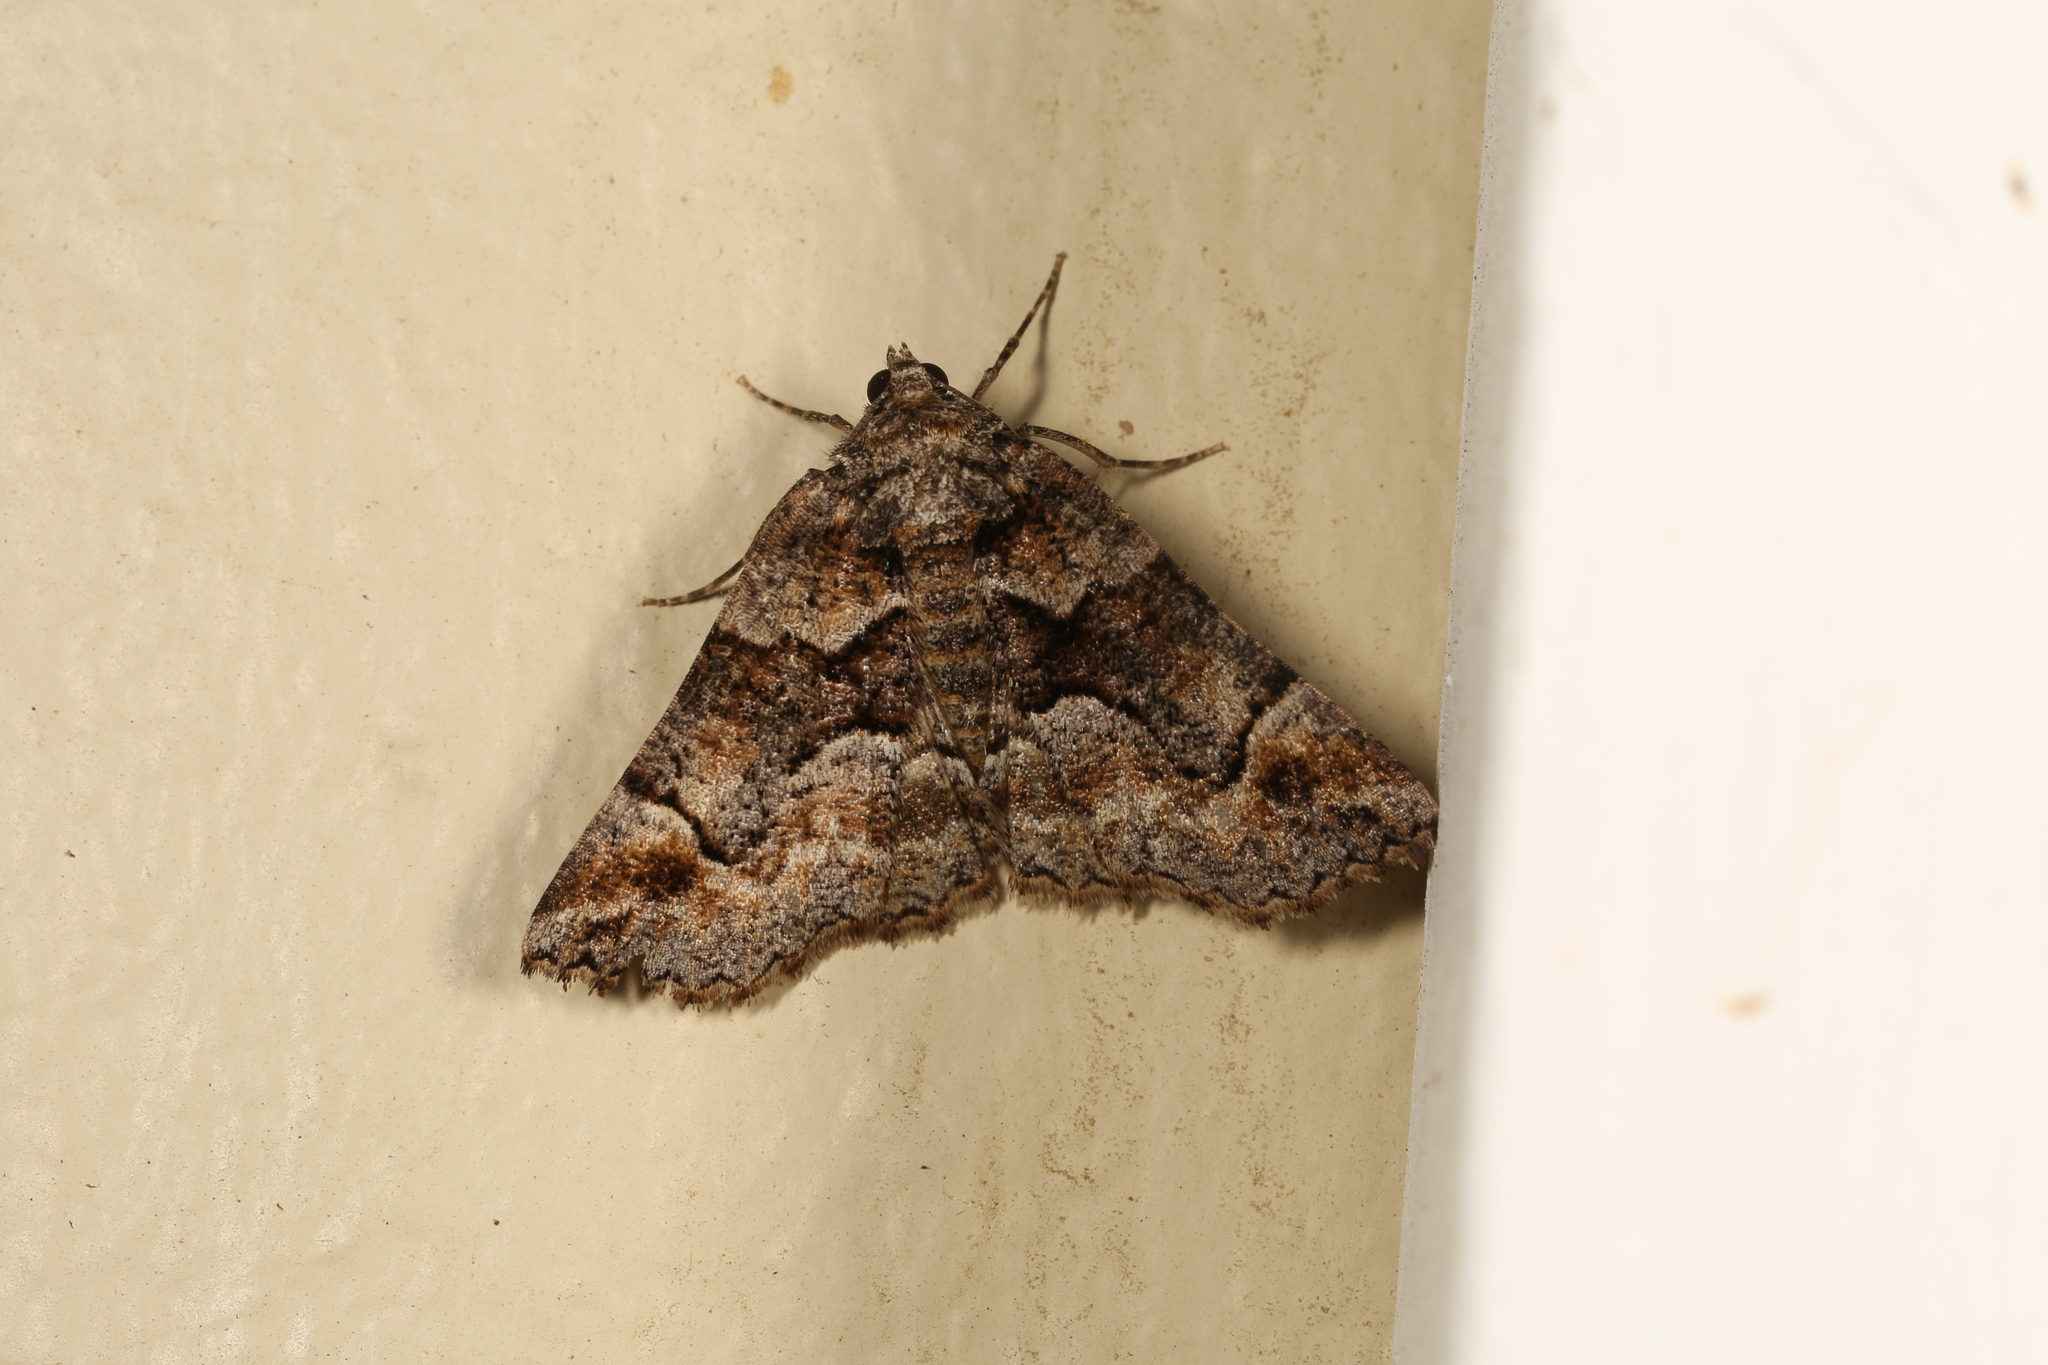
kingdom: Animalia
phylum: Arthropoda
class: Insecta
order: Lepidoptera
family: Geometridae
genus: Gastrina
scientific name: Gastrina cristaria
